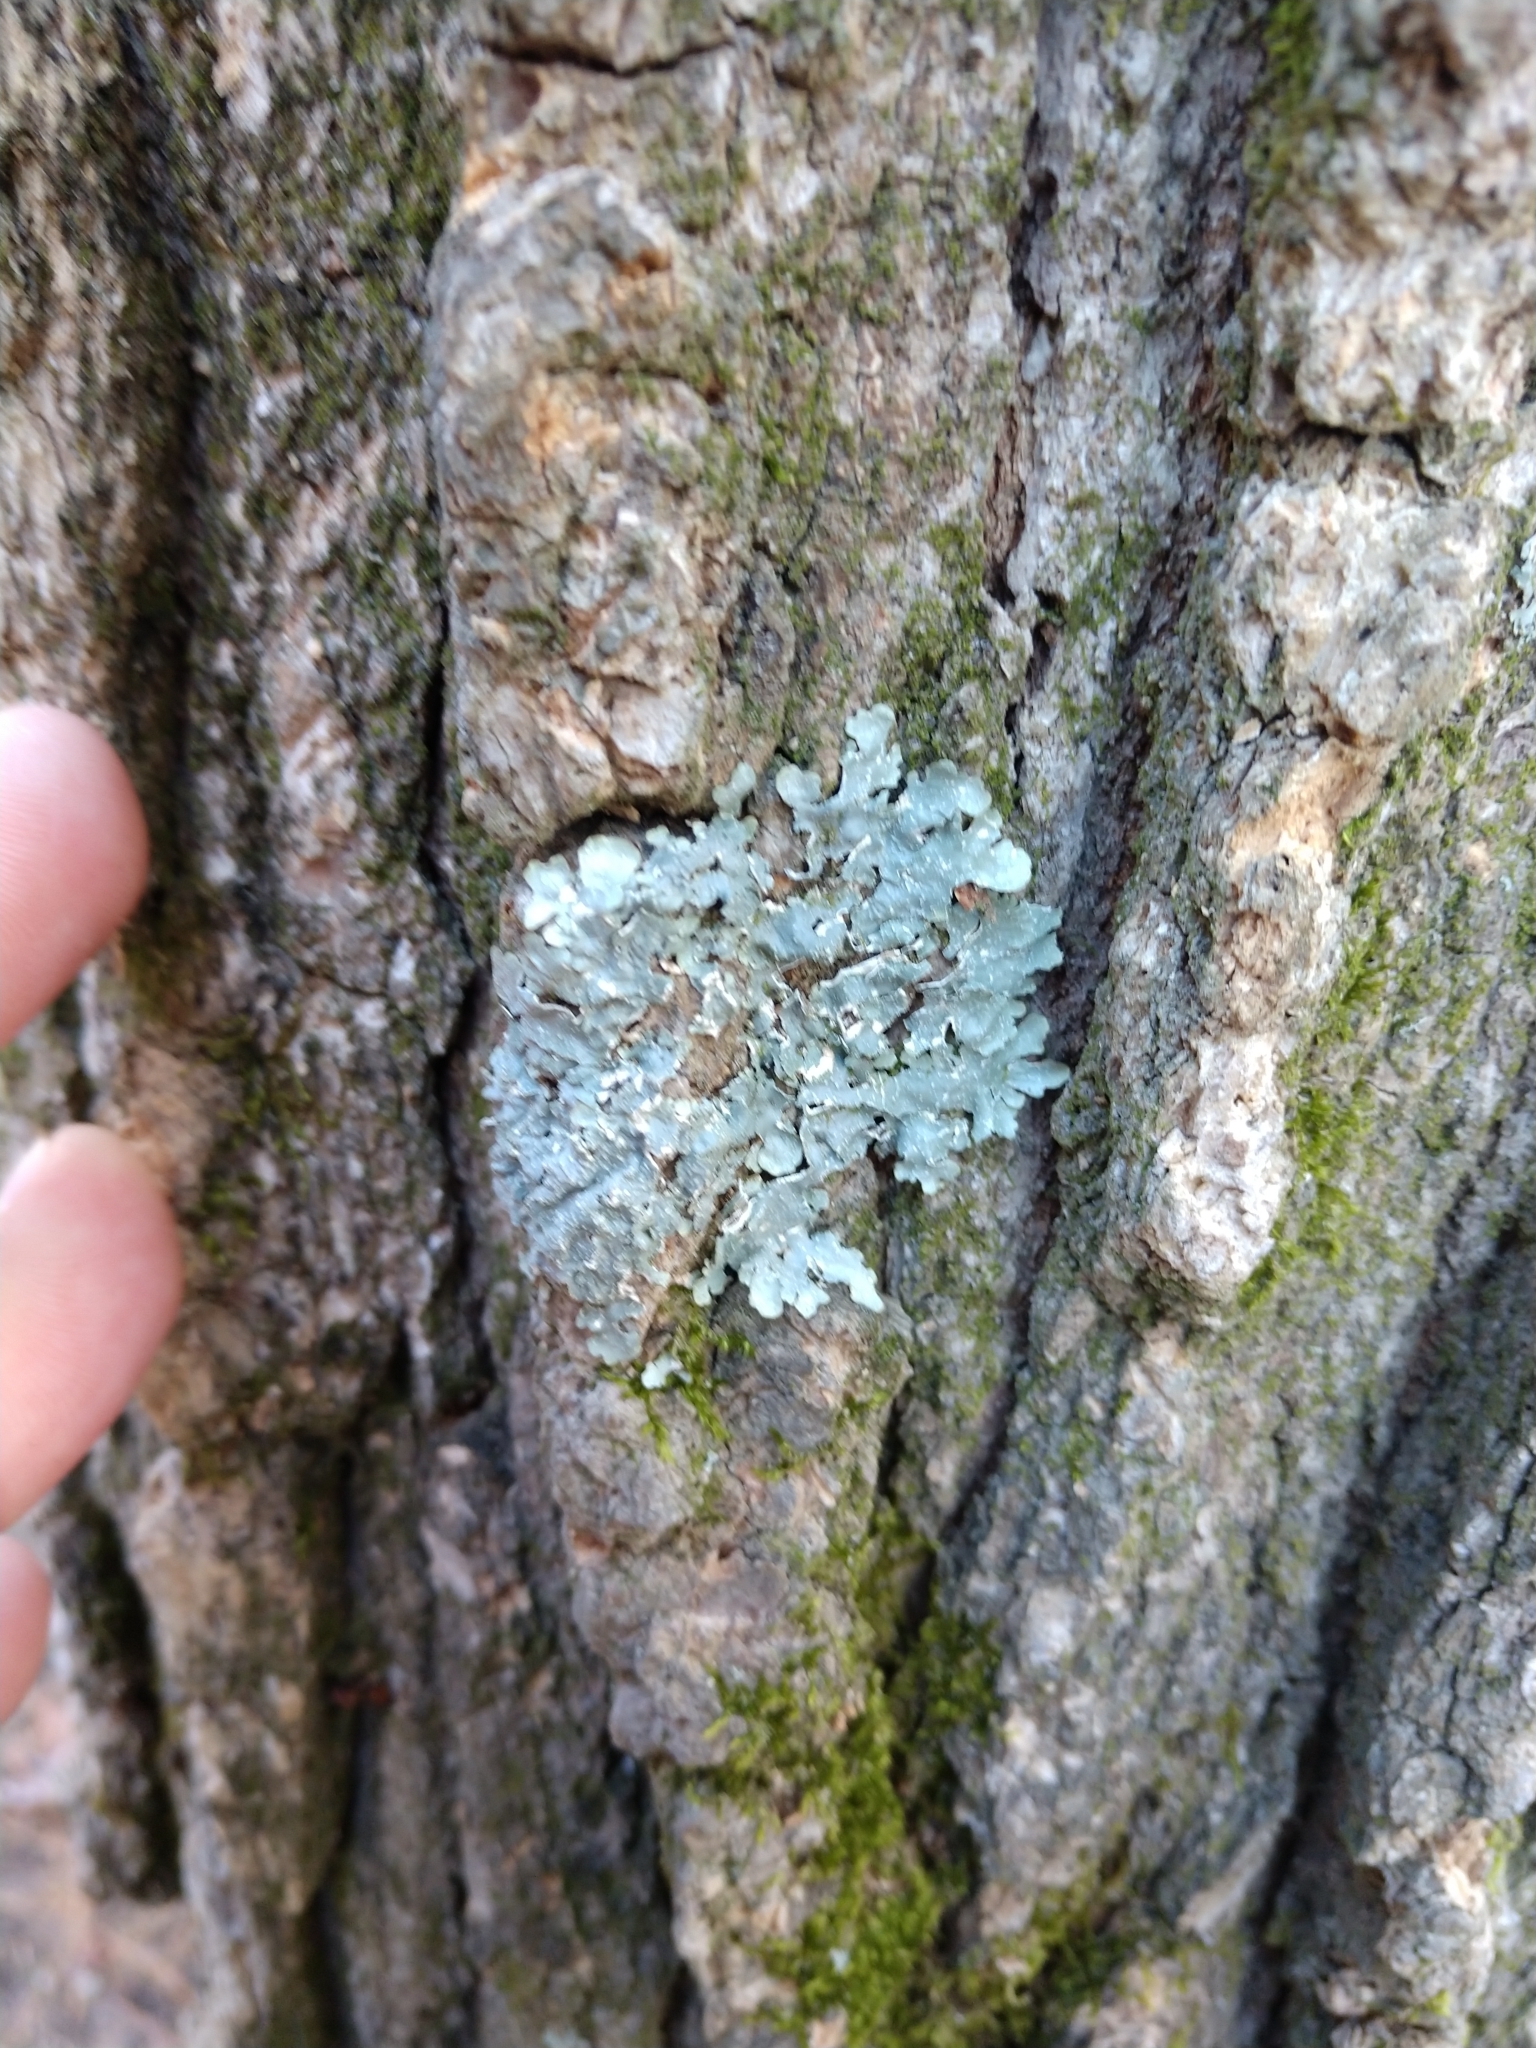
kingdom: Fungi
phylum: Ascomycota
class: Lecanoromycetes
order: Lecanorales
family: Parmeliaceae
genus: Flavoparmelia
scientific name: Flavoparmelia caperata
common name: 40-mile per hour lichen
